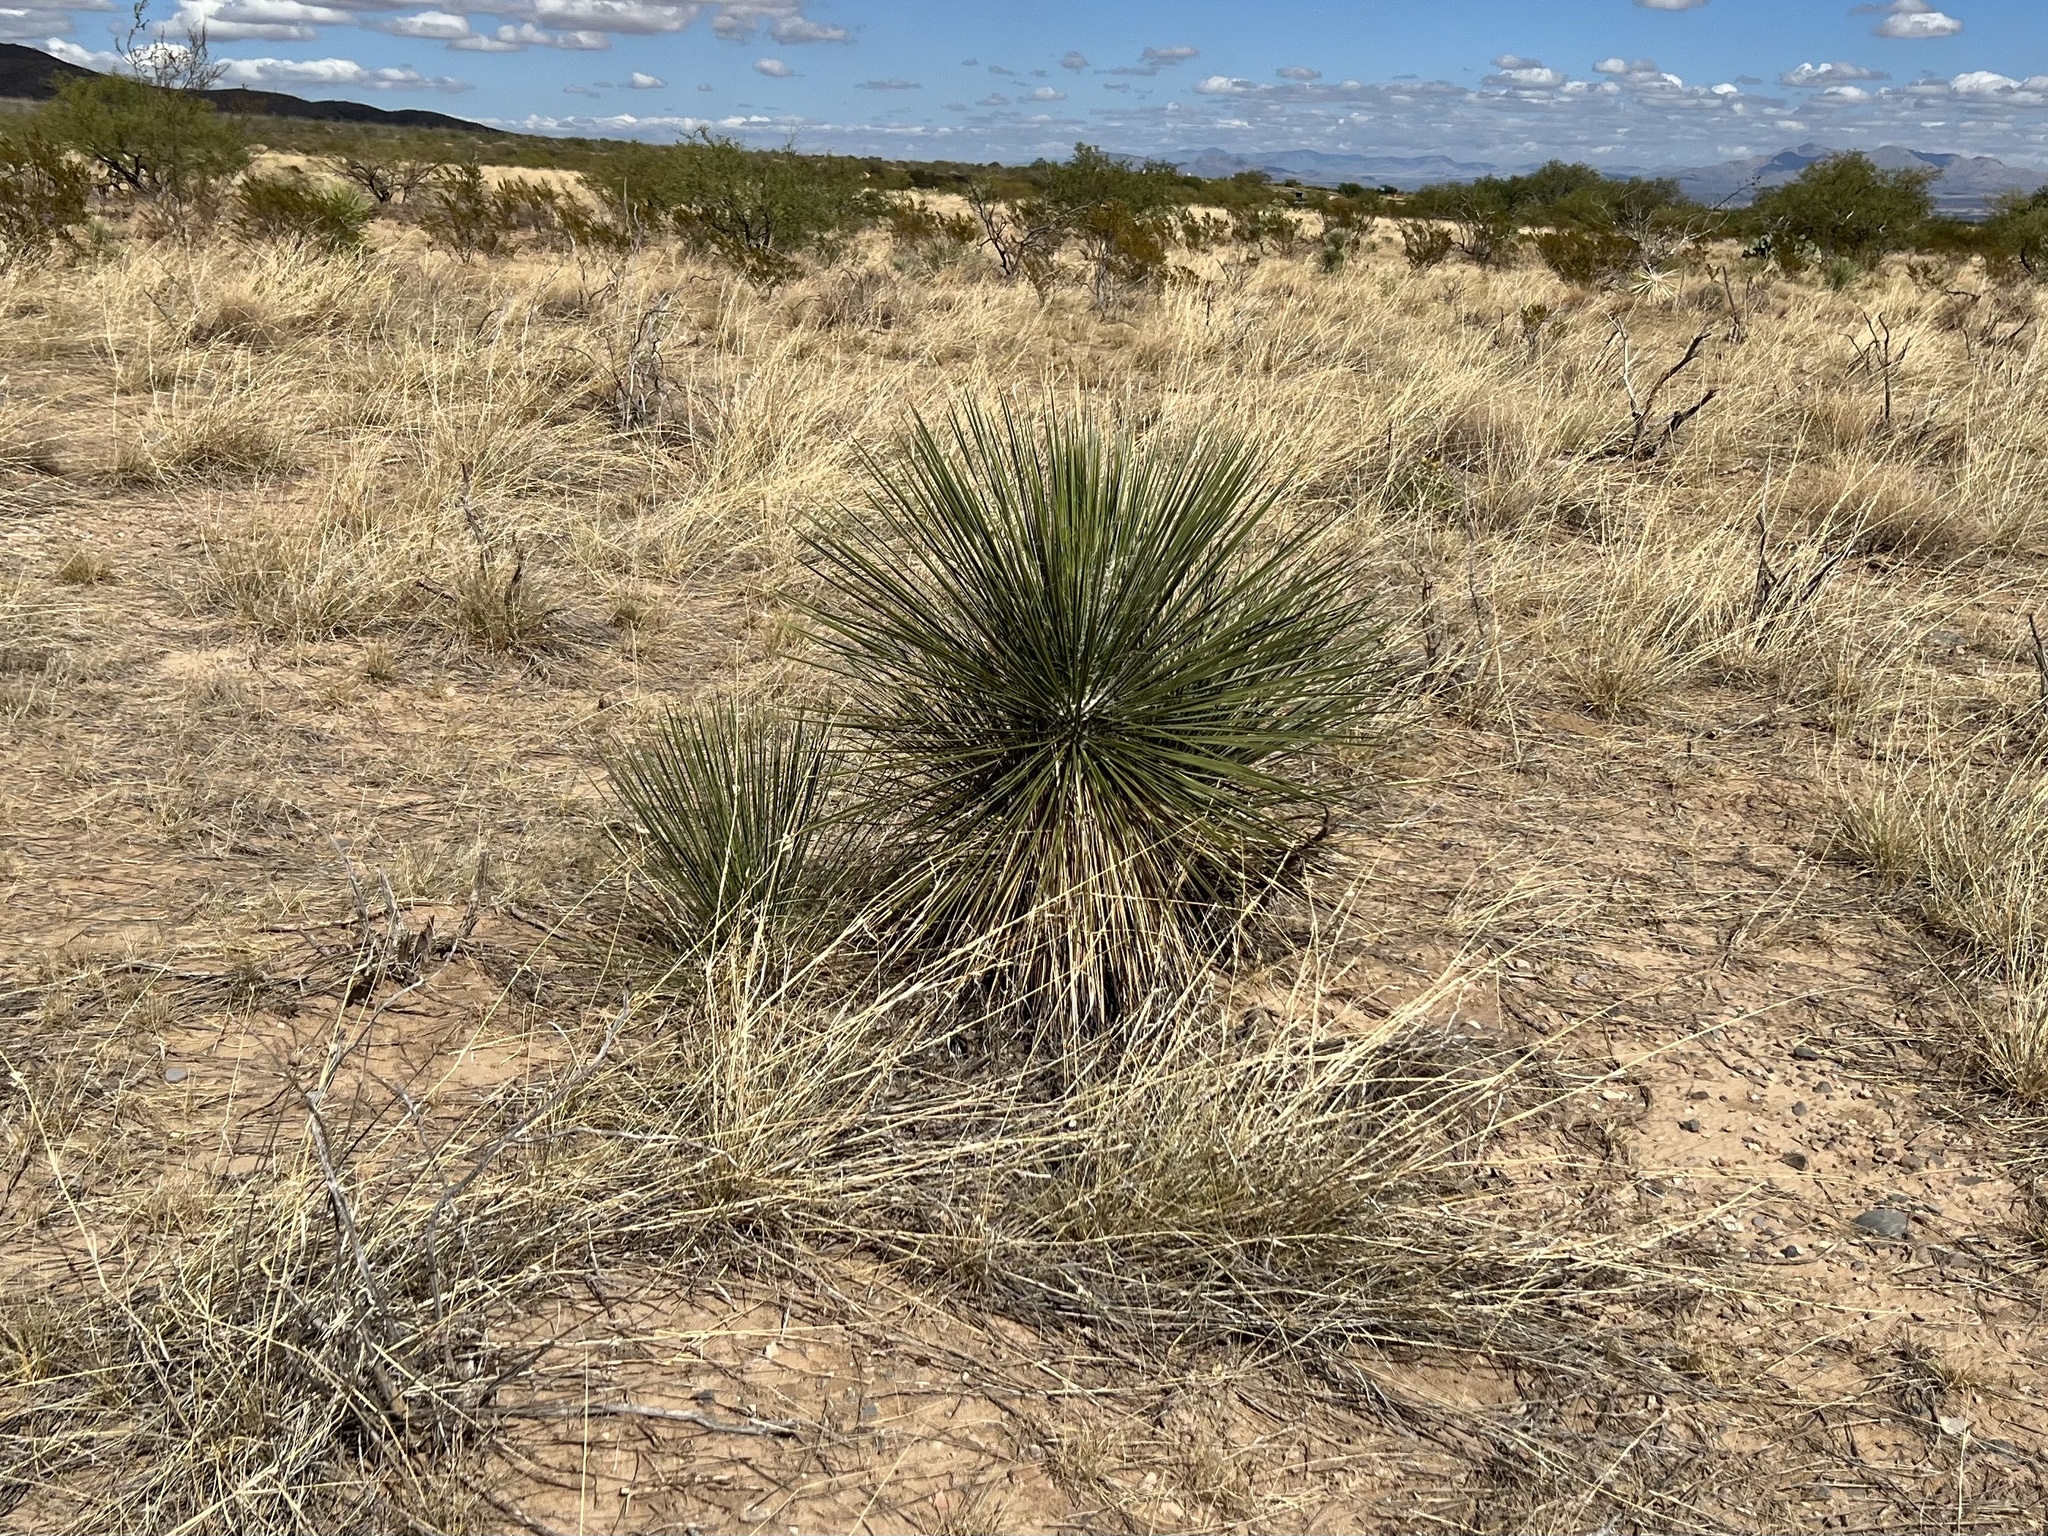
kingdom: Plantae
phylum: Tracheophyta
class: Liliopsida
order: Asparagales
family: Asparagaceae
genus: Yucca
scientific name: Yucca elata
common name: Palmella
